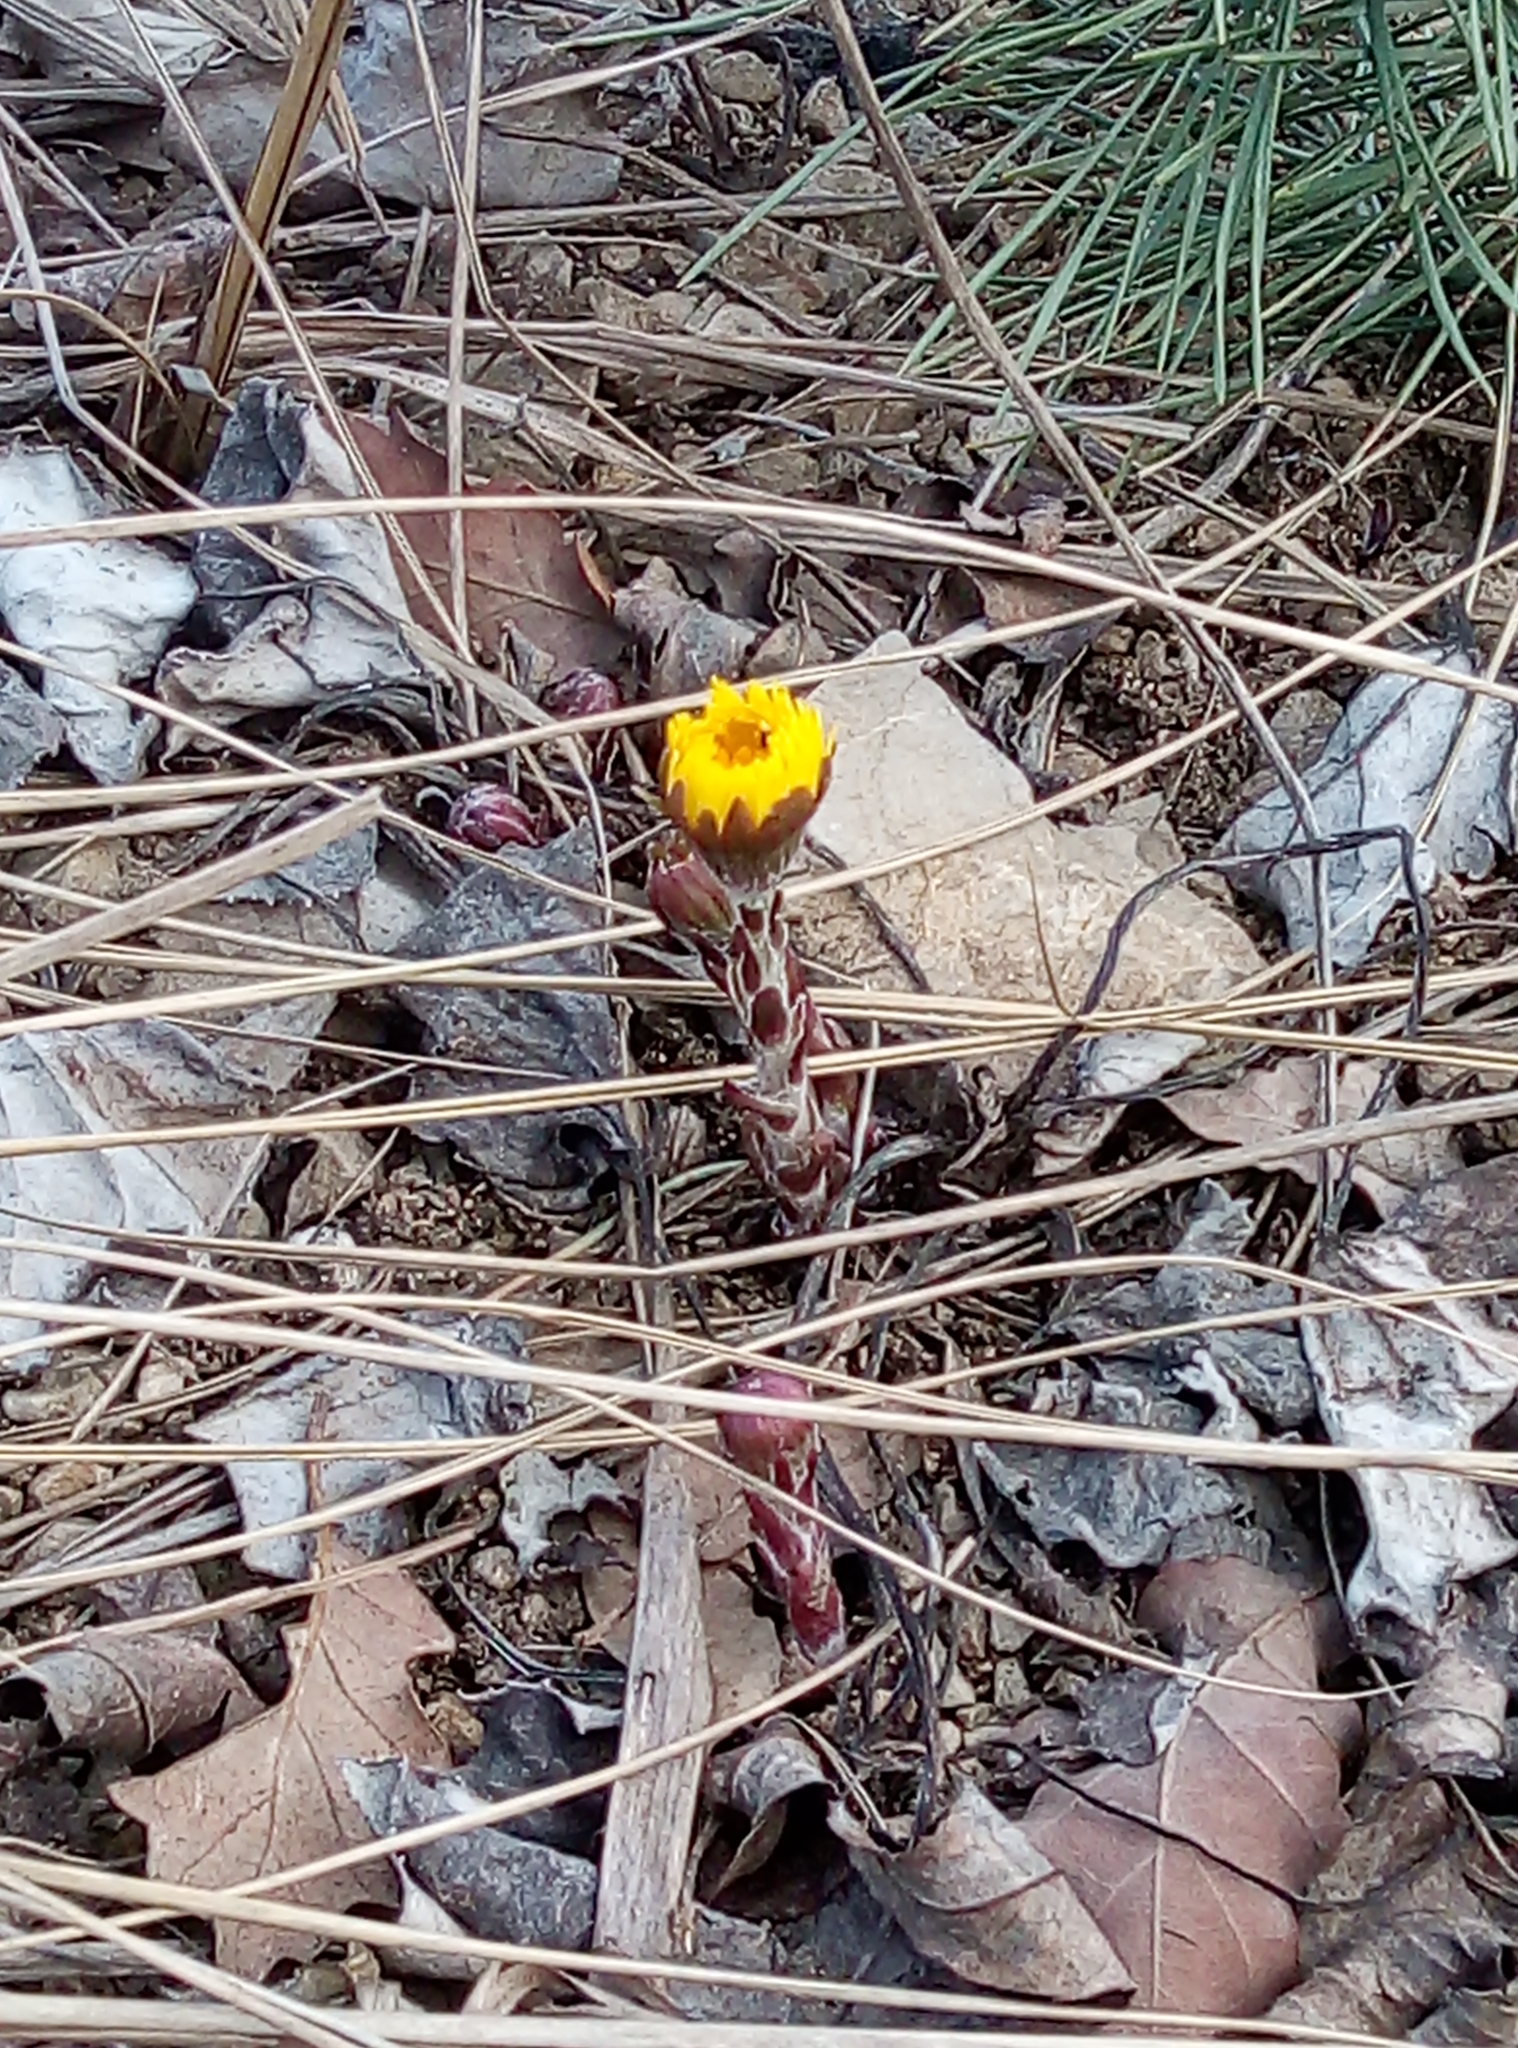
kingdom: Plantae
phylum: Tracheophyta
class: Magnoliopsida
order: Asterales
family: Asteraceae
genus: Tussilago
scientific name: Tussilago farfara
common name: Coltsfoot
